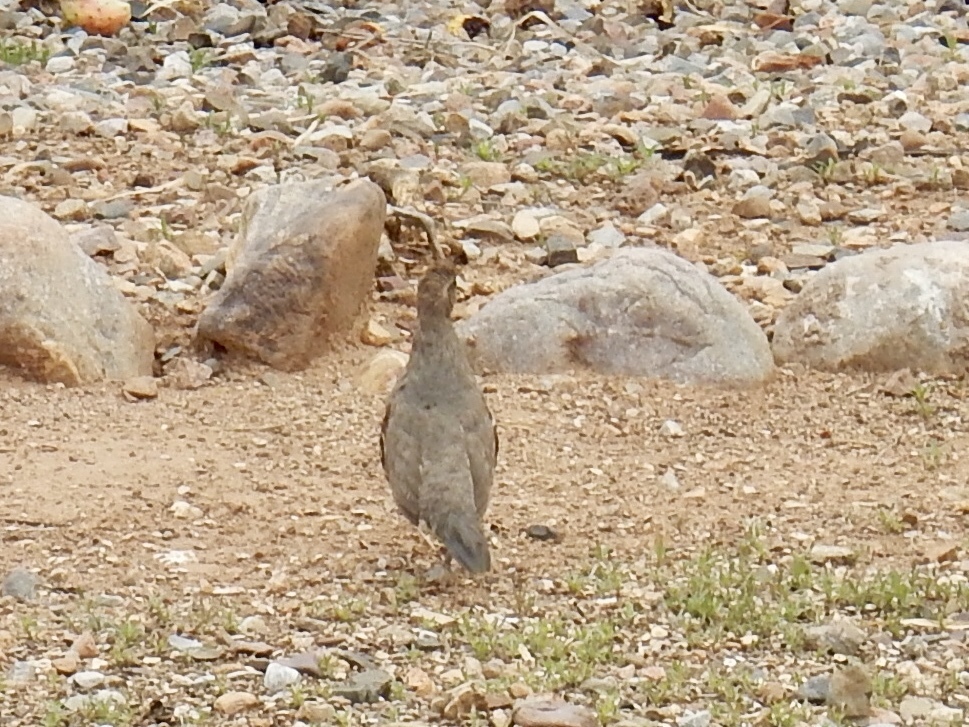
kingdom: Animalia
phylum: Chordata
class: Aves
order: Galliformes
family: Odontophoridae
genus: Callipepla
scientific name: Callipepla gambelii
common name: Gambel's quail
